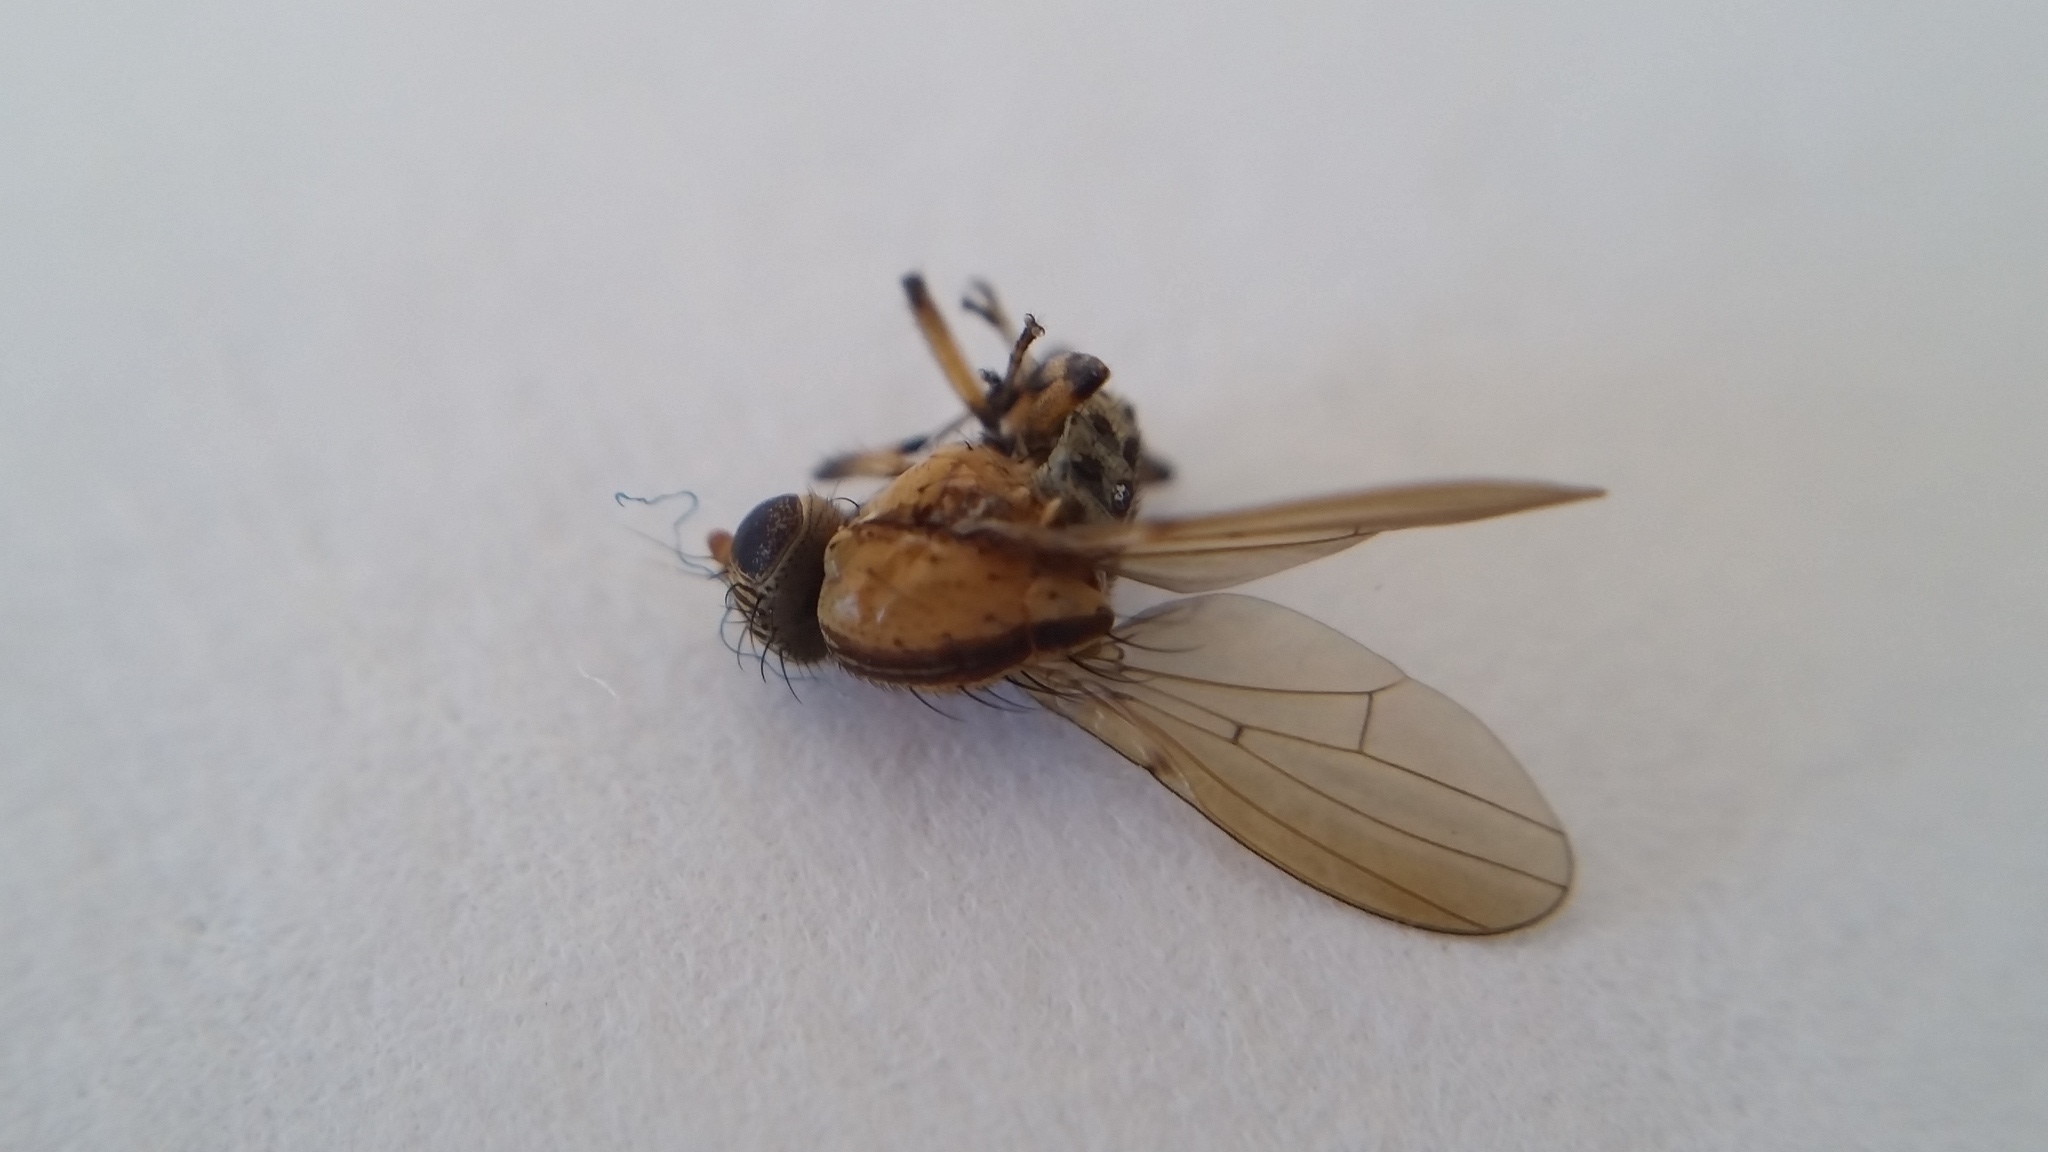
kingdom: Animalia
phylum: Arthropoda
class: Insecta
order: Diptera
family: Lauxaniidae
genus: Sapromyza
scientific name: Sapromyza neozelandica
